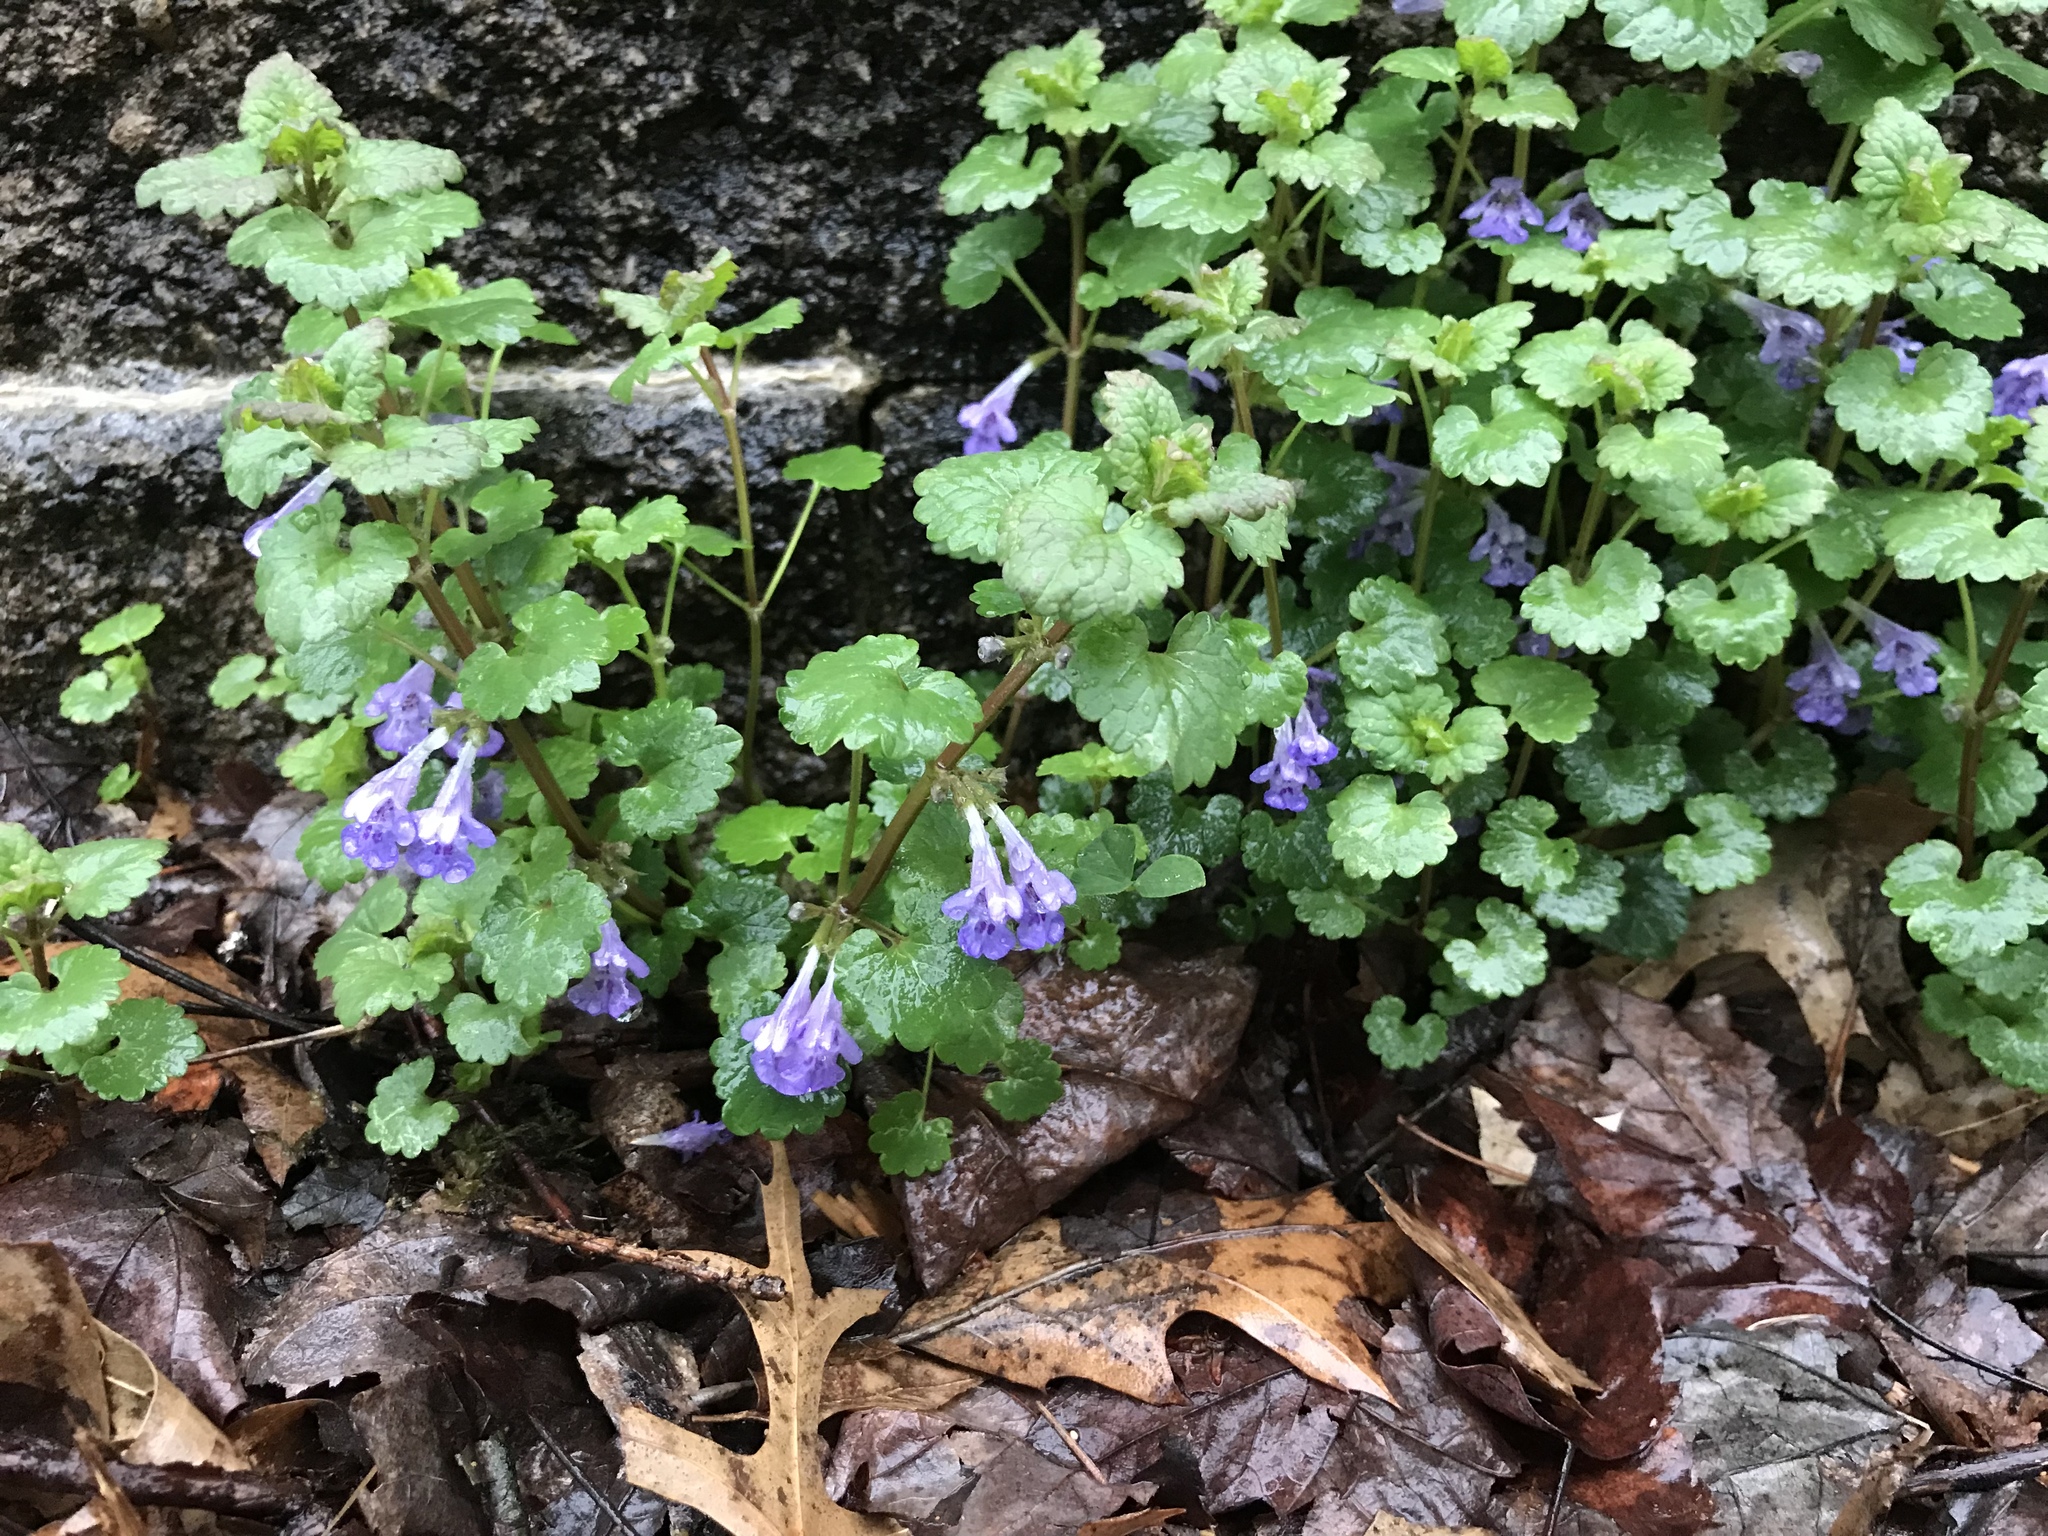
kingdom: Plantae
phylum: Tracheophyta
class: Magnoliopsida
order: Lamiales
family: Lamiaceae
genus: Glechoma
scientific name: Glechoma hederacea
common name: Ground ivy
